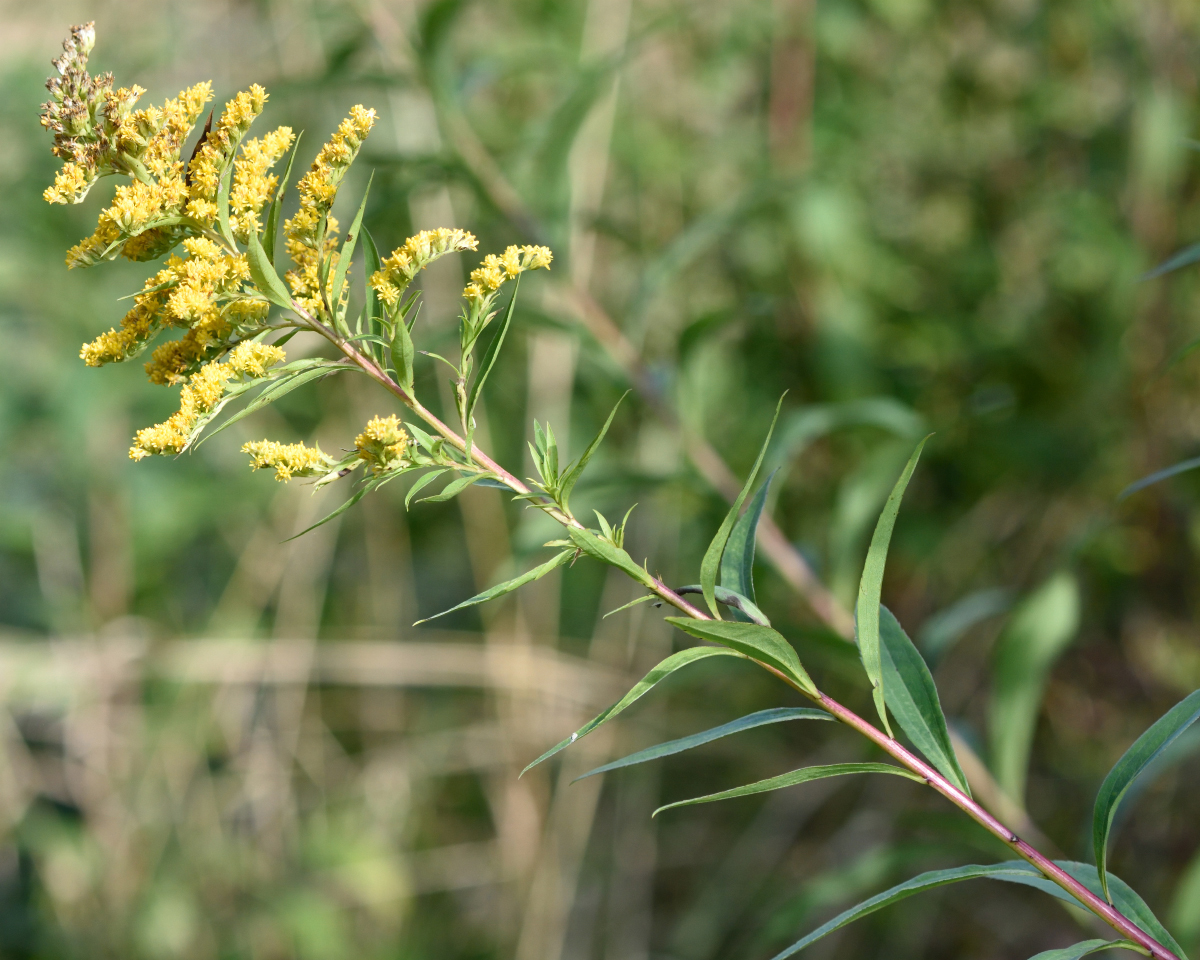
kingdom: Plantae
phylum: Tracheophyta
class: Magnoliopsida
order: Asterales
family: Asteraceae
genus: Solidago
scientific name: Solidago gigantea
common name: Giant goldenrod
